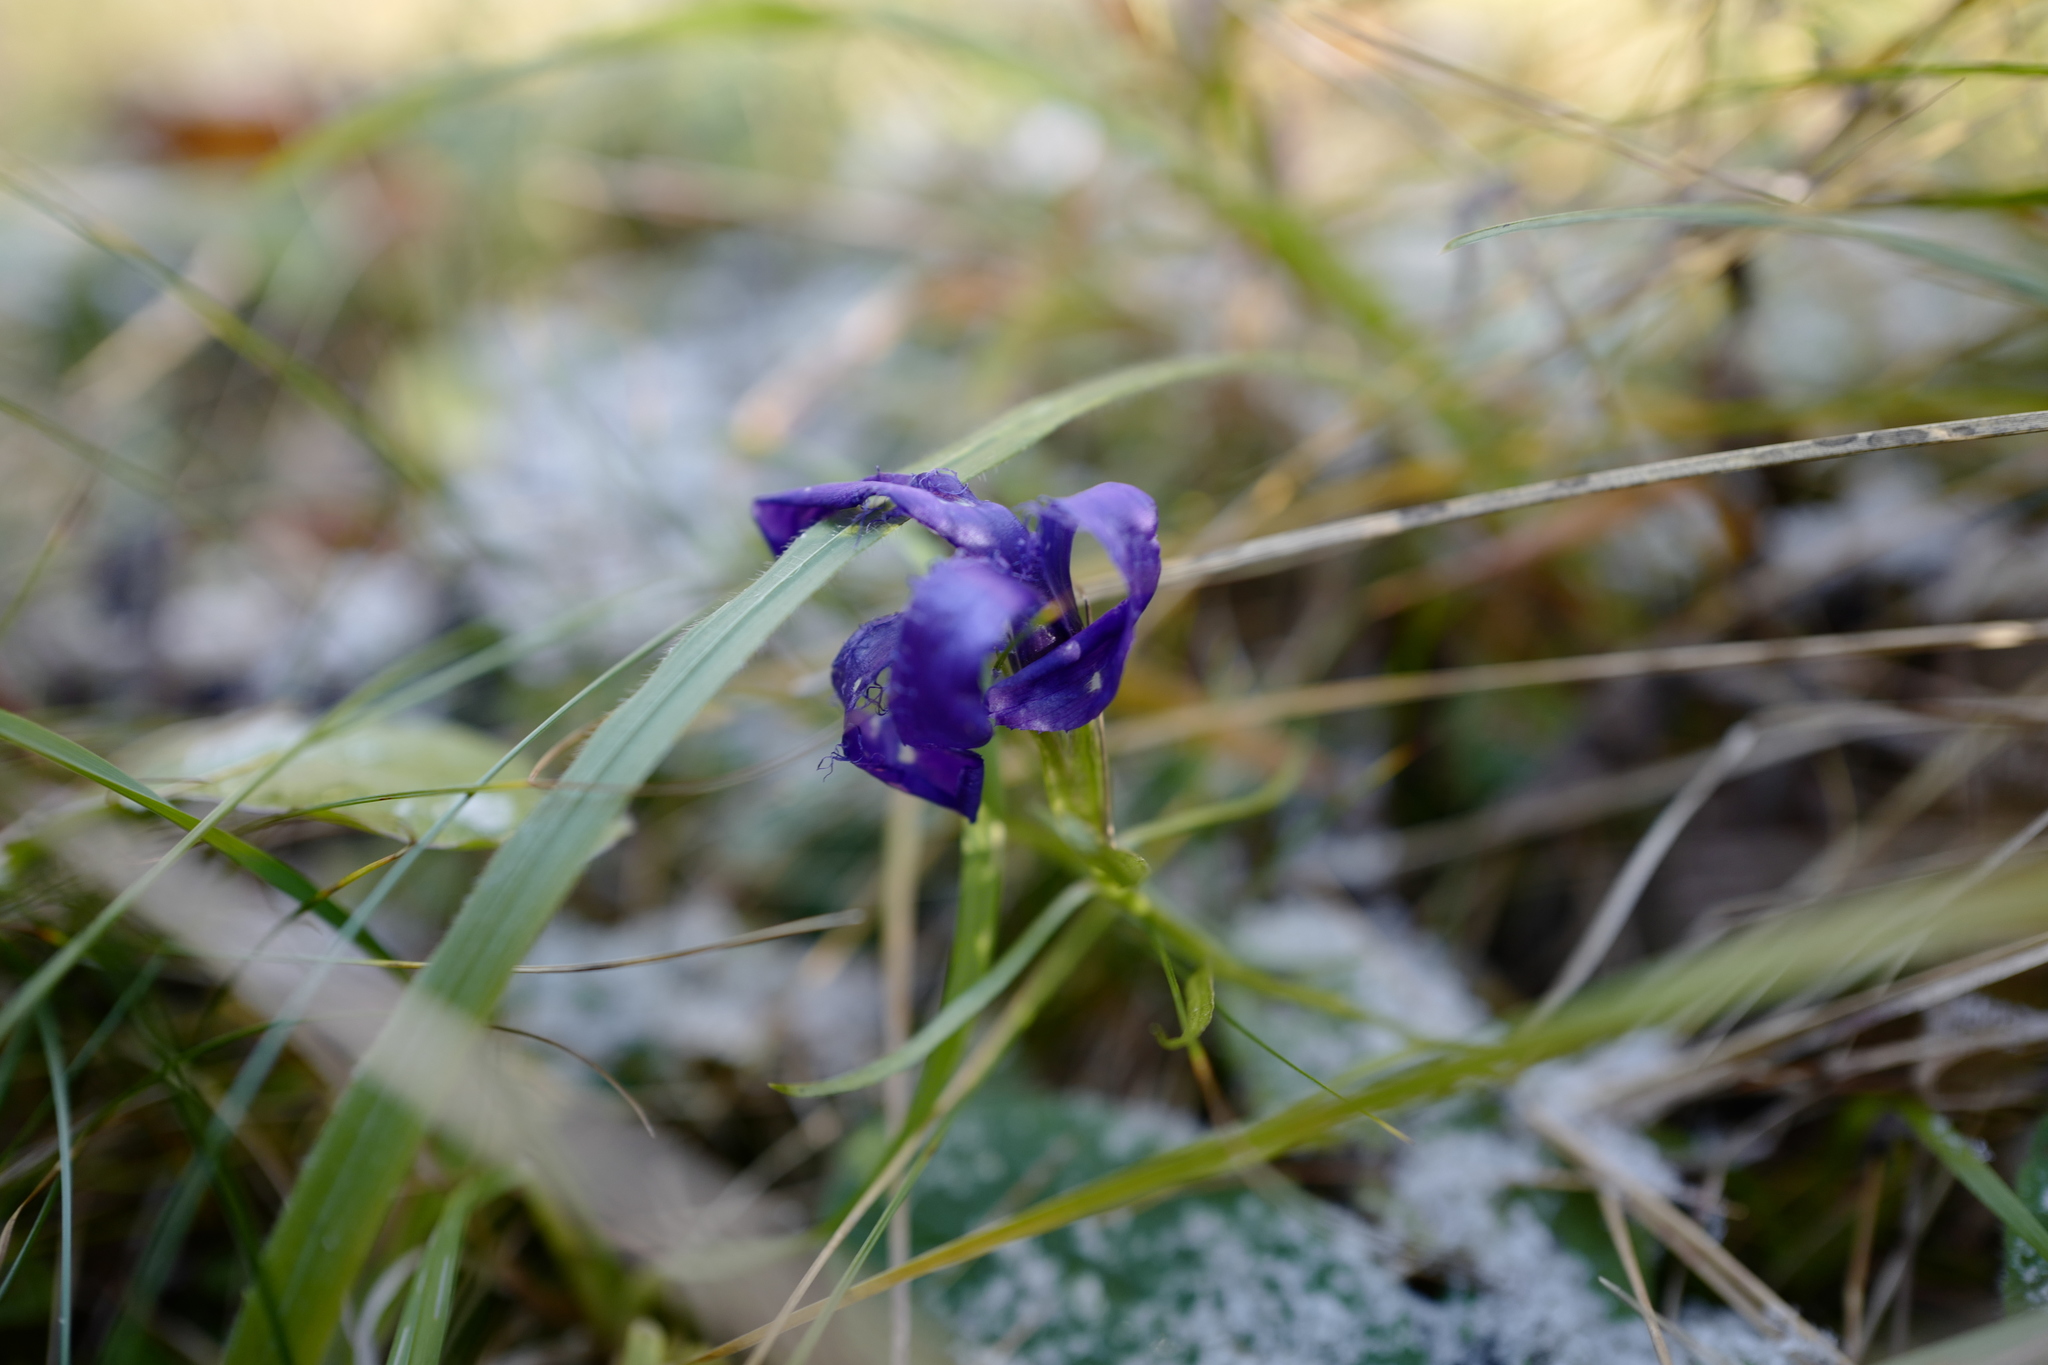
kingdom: Plantae
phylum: Tracheophyta
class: Magnoliopsida
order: Gentianales
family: Gentianaceae
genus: Gentianopsis
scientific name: Gentianopsis ciliata
